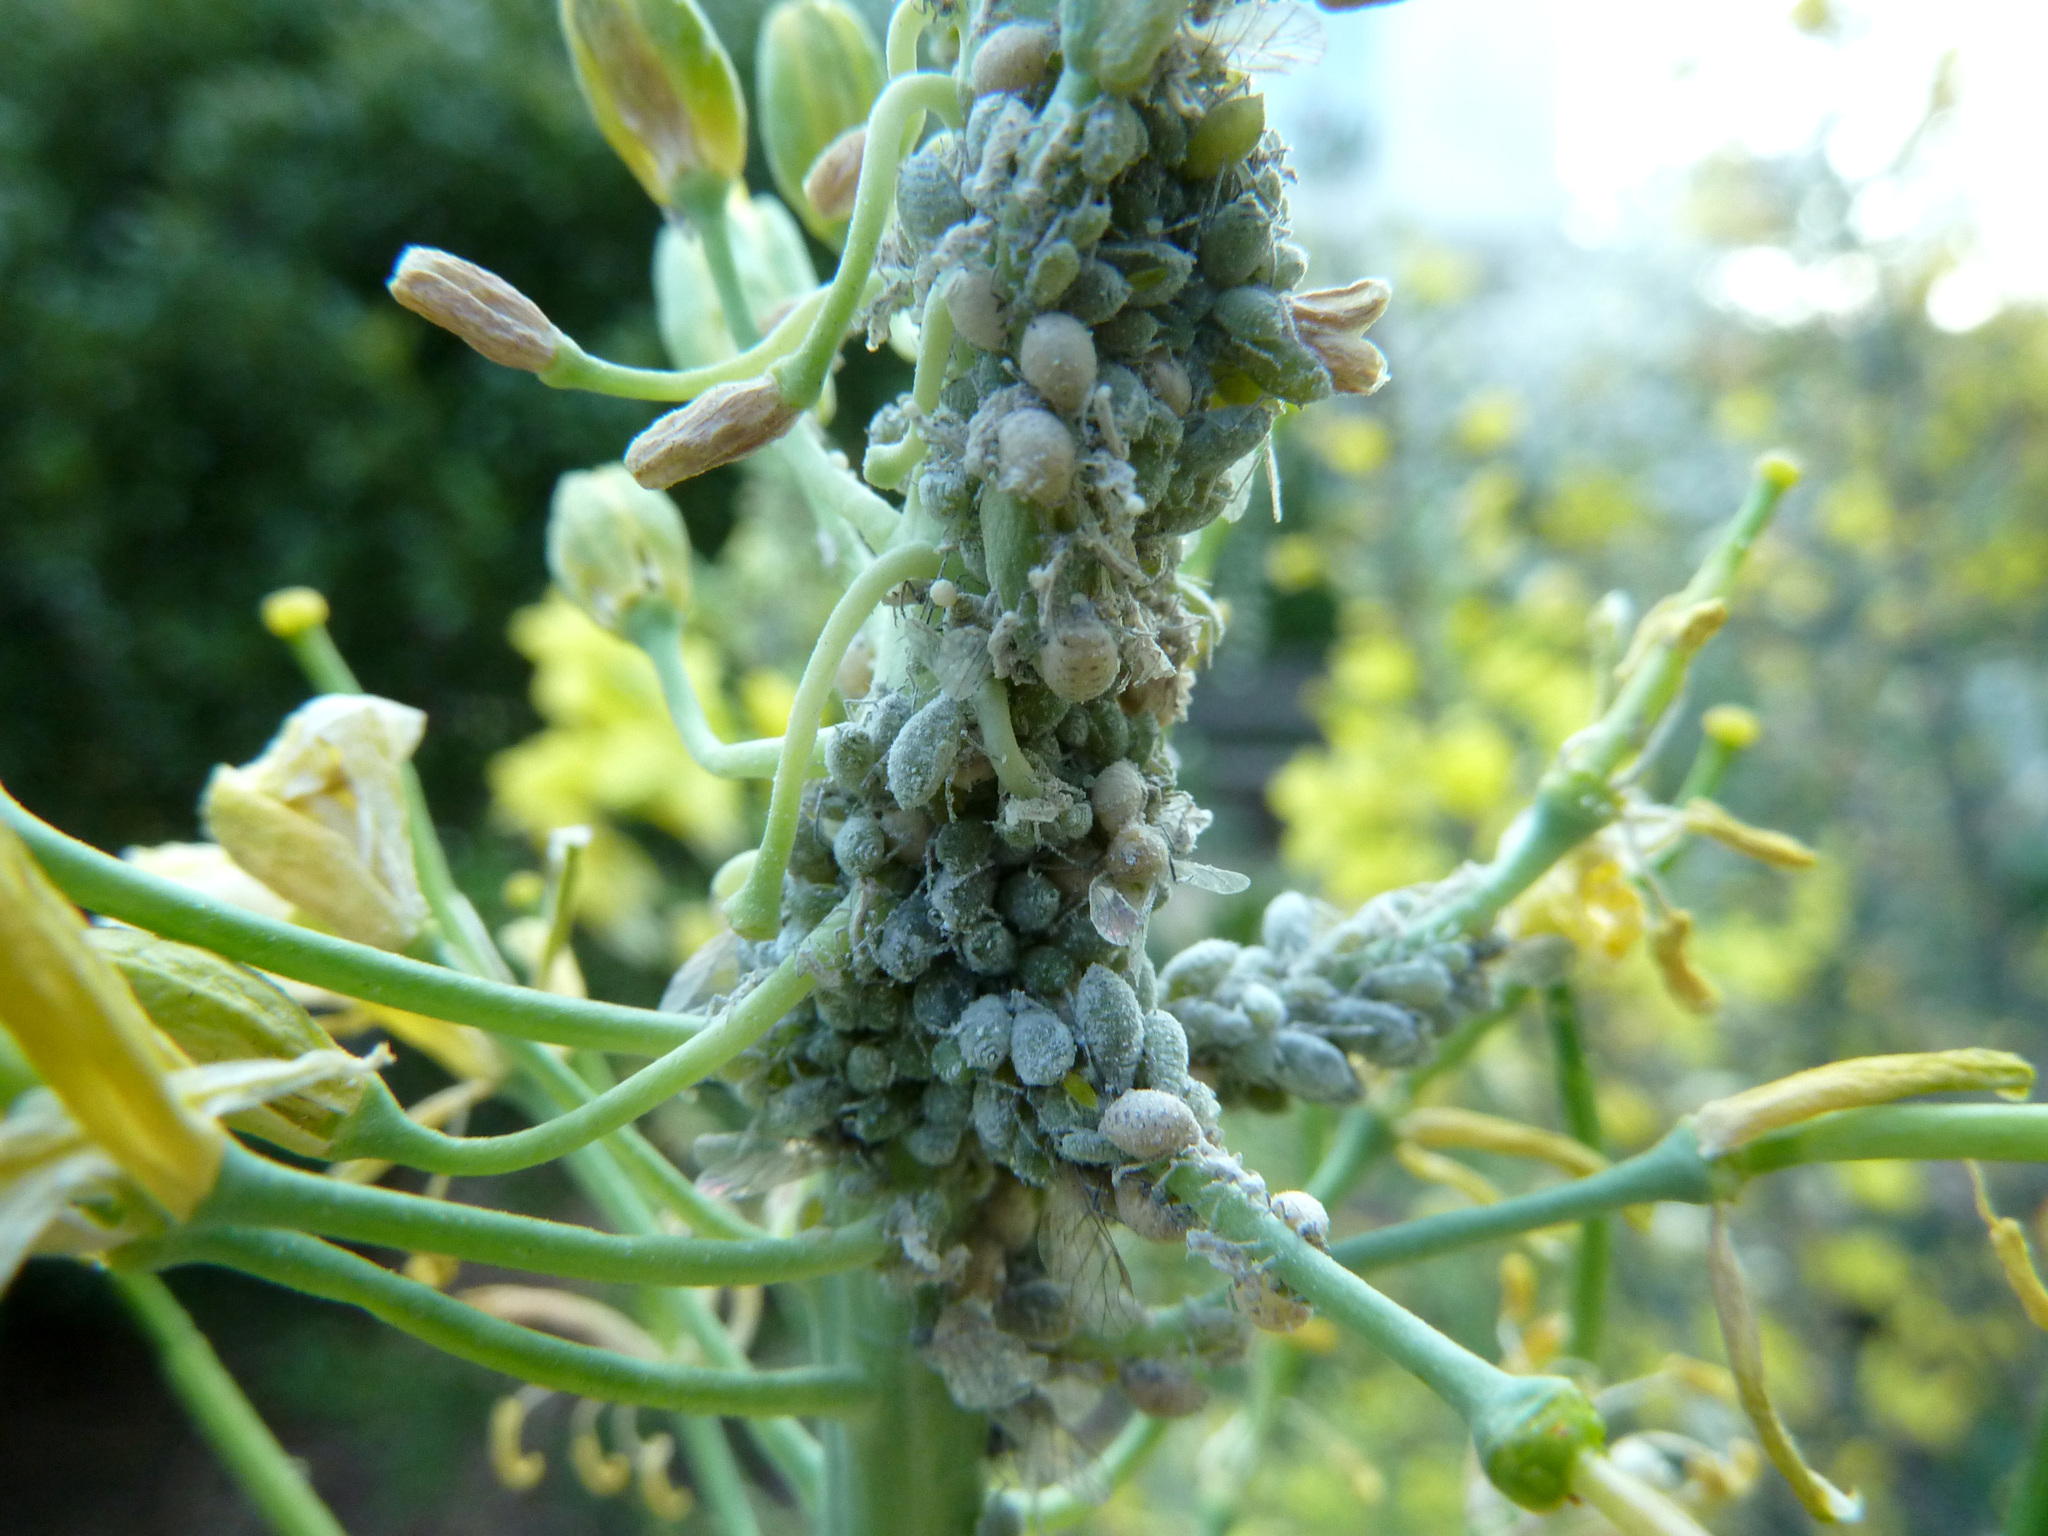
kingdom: Animalia
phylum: Arthropoda
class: Insecta
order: Hemiptera
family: Aphididae
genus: Brevicoryne
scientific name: Brevicoryne brassicae
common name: Cabbage aphid
